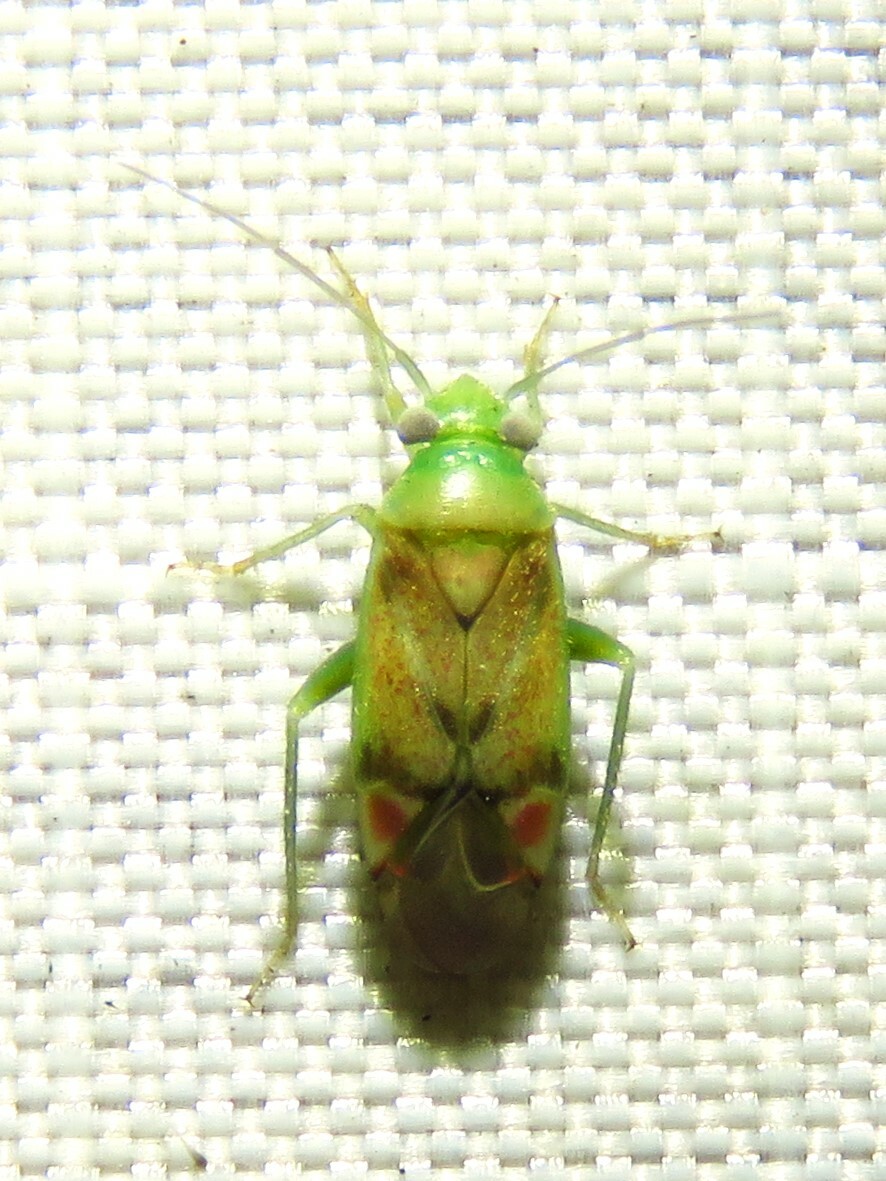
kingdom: Animalia
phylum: Arthropoda
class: Insecta
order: Hemiptera
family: Miridae
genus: Dichrooscytus
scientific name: Dichrooscytus
